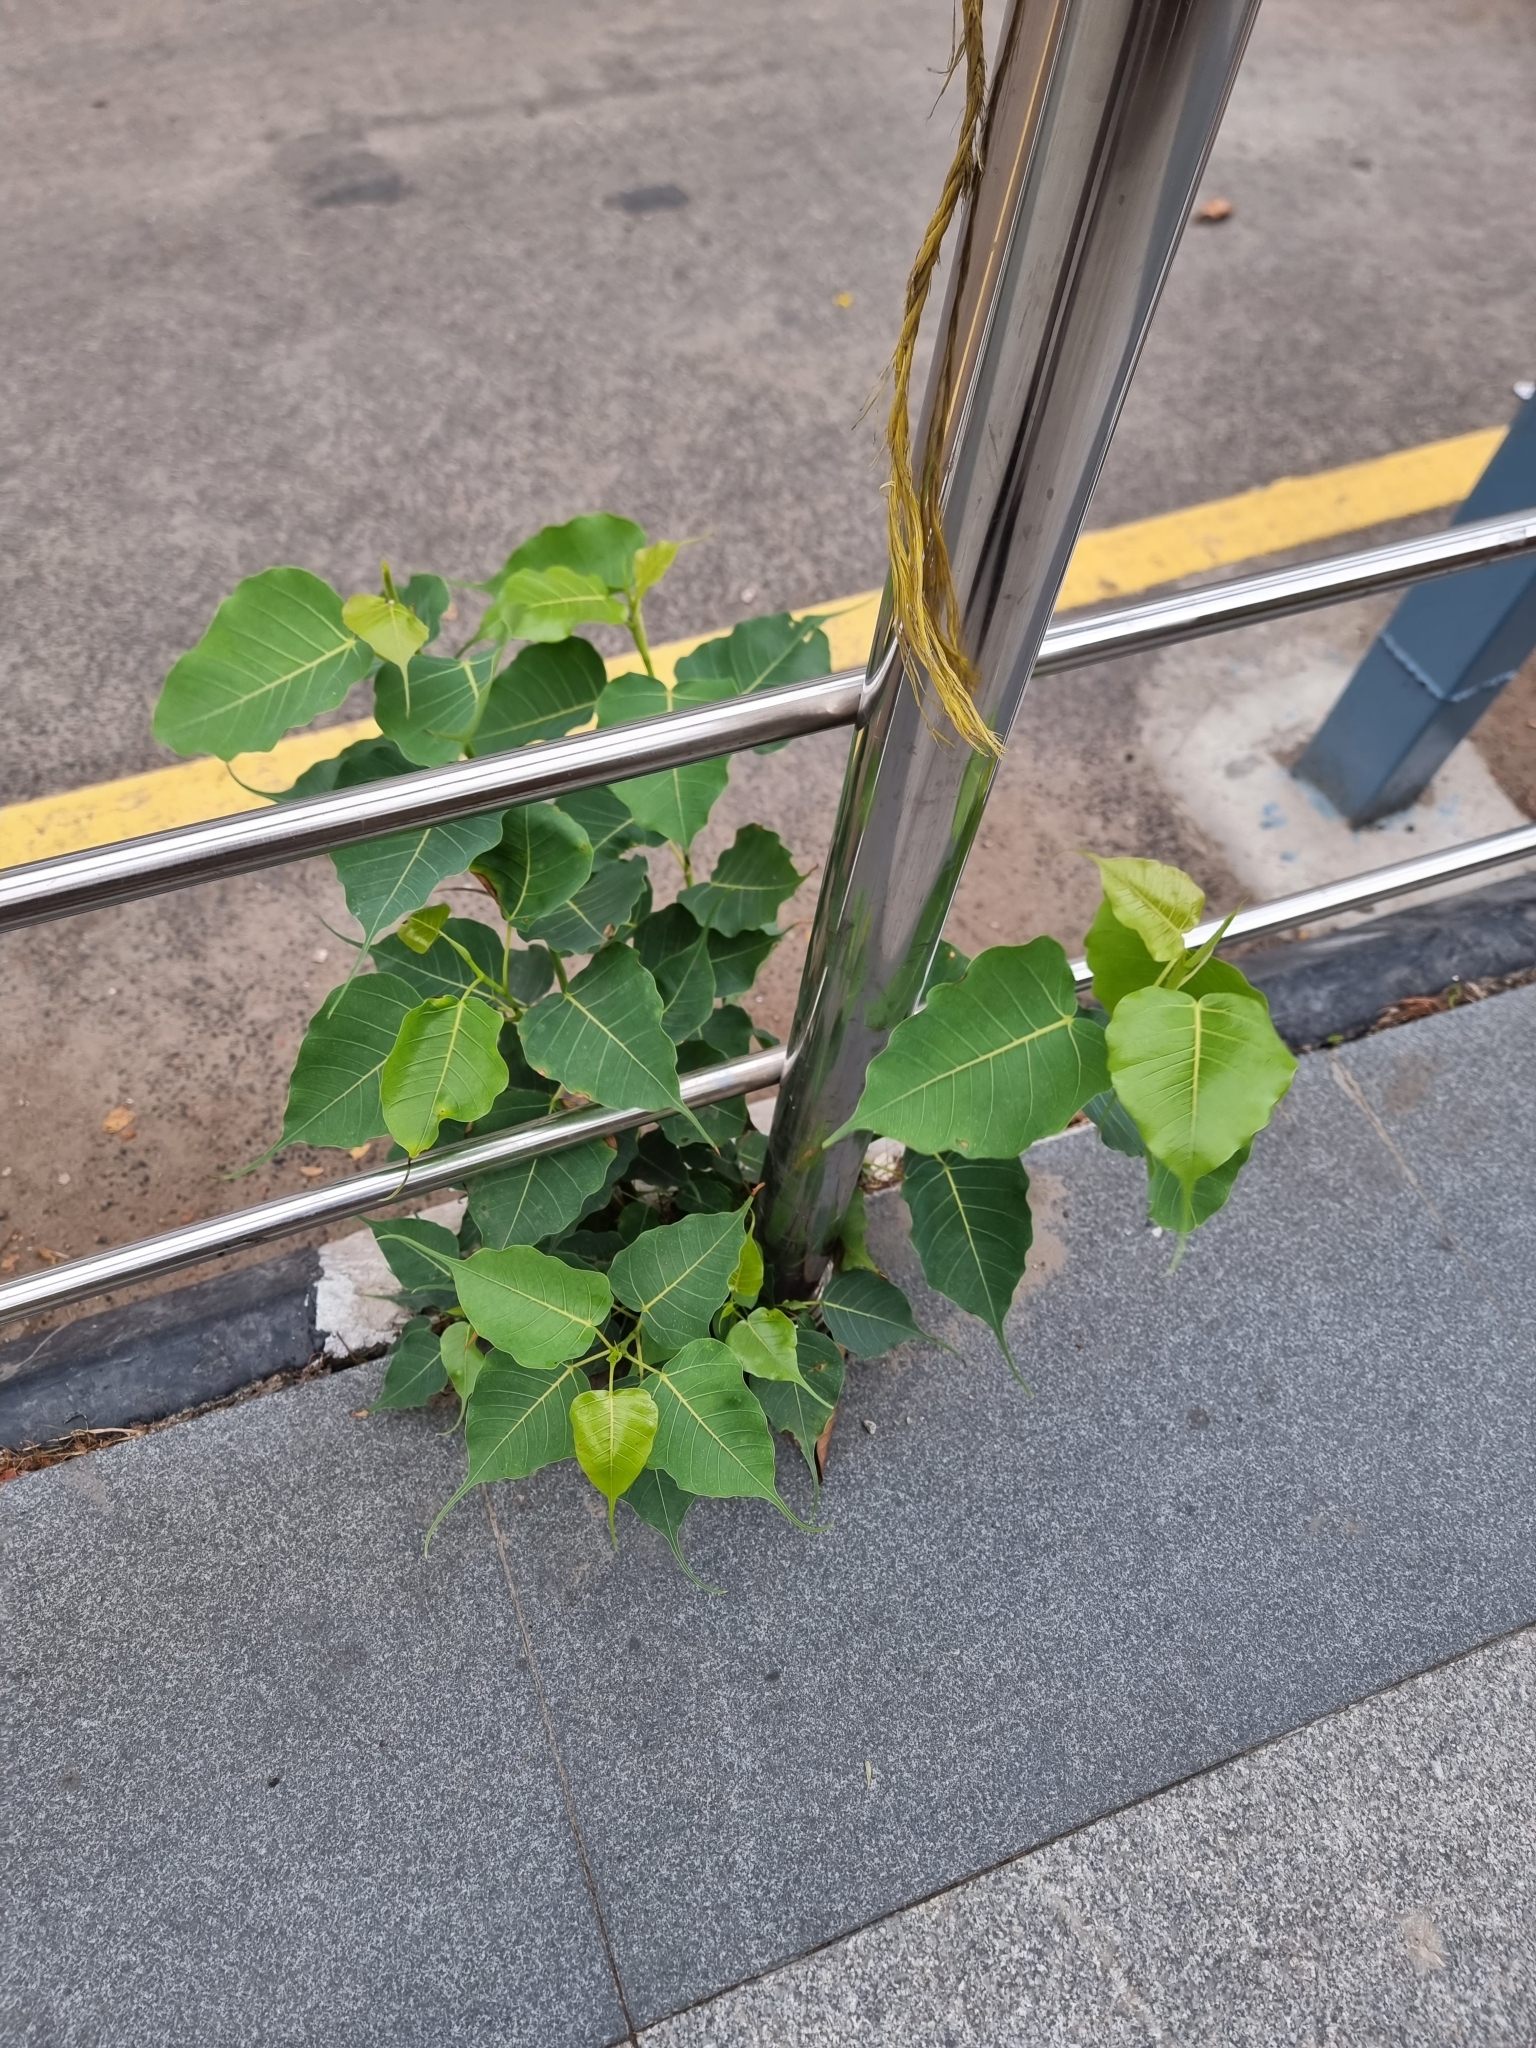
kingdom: Plantae
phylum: Tracheophyta
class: Magnoliopsida
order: Rosales
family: Moraceae
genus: Ficus
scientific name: Ficus religiosa
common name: Bodhi tree
